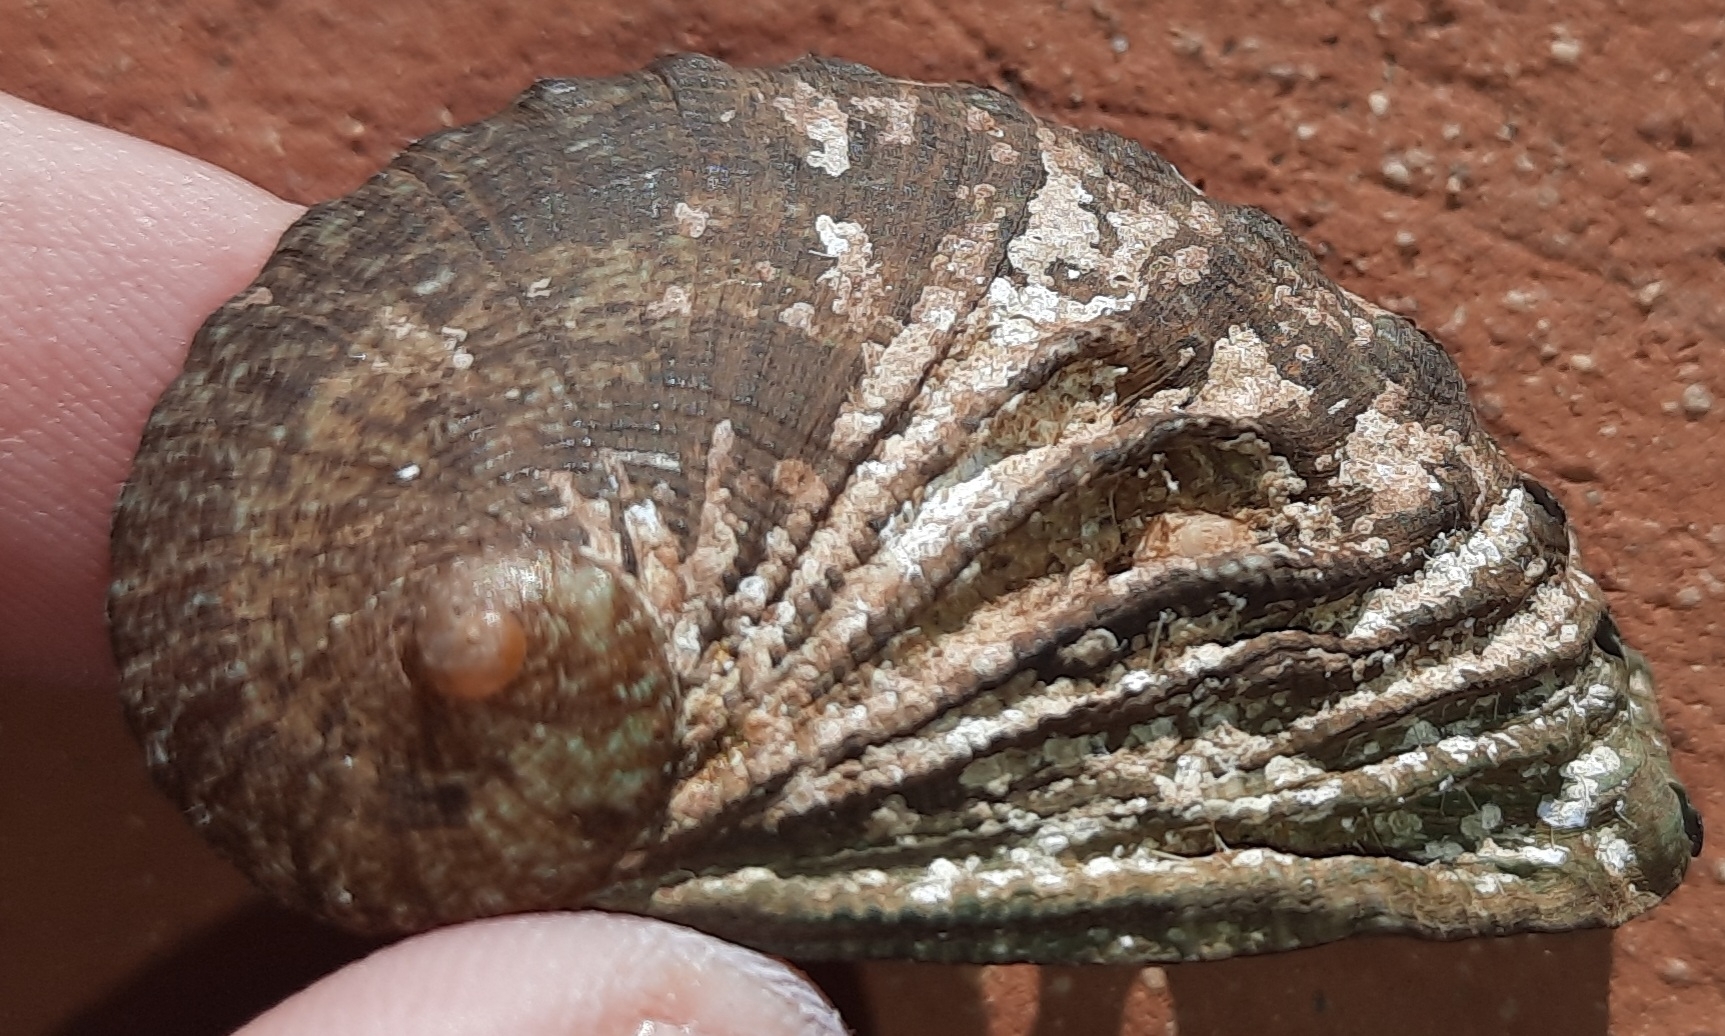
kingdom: Animalia
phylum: Mollusca
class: Gastropoda
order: Lepetellida
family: Haliotidae
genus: Haliotis
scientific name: Haliotis tuberculata
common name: Green ormer
